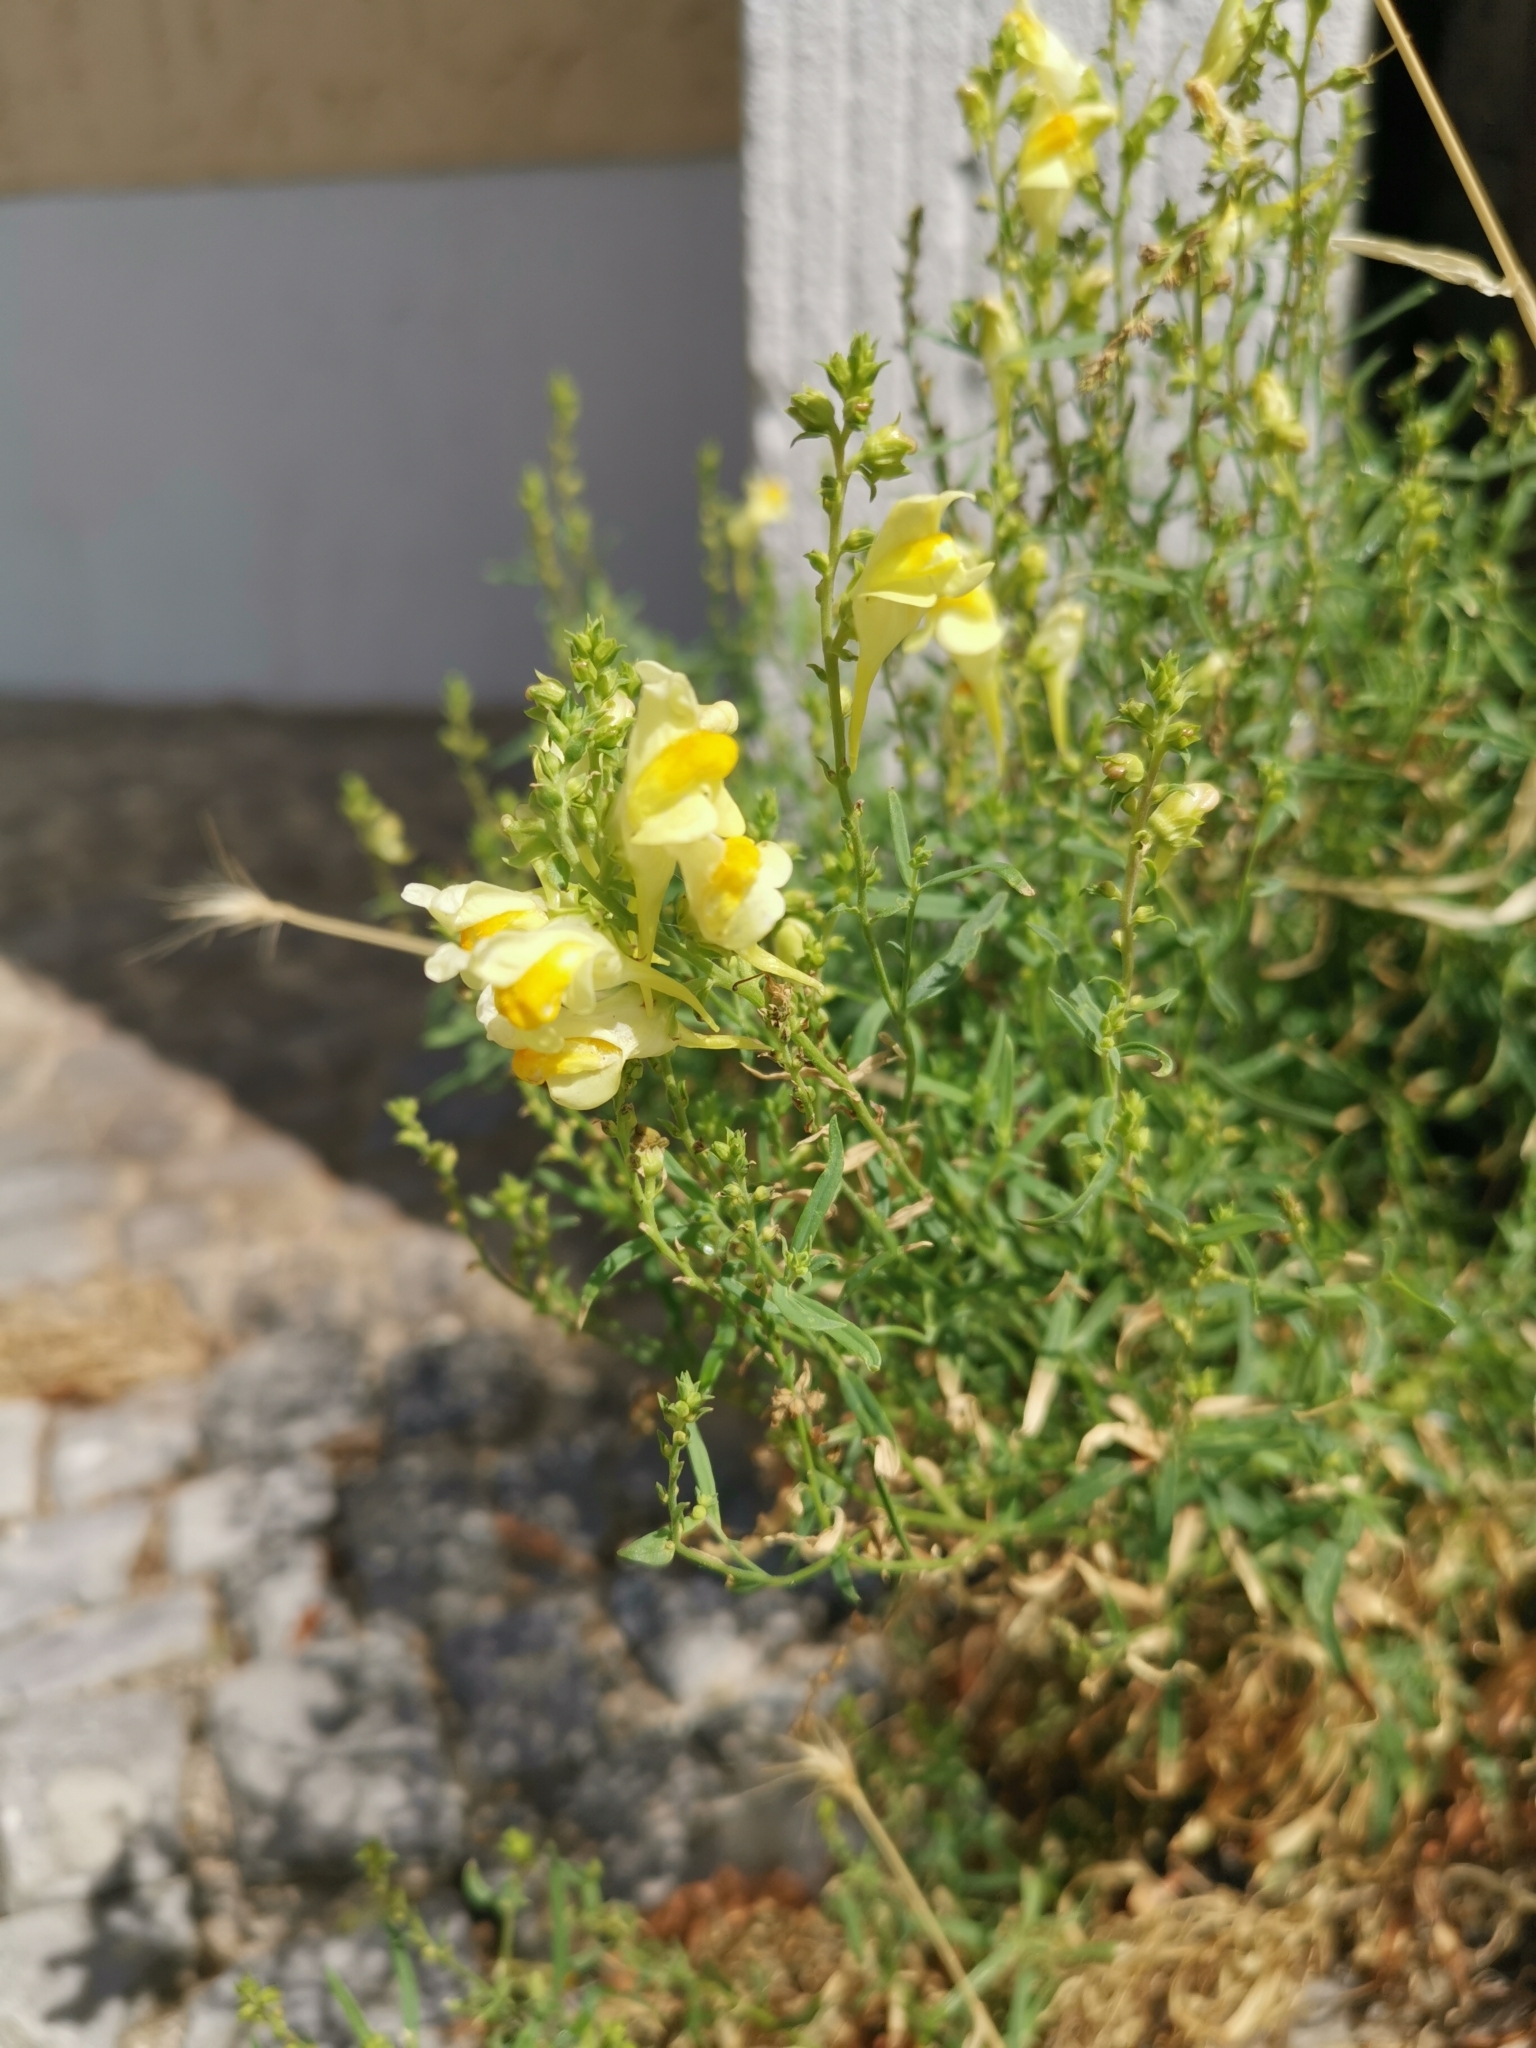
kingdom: Plantae
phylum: Tracheophyta
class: Magnoliopsida
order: Lamiales
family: Plantaginaceae
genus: Linaria
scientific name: Linaria vulgaris
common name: Butter and eggs
